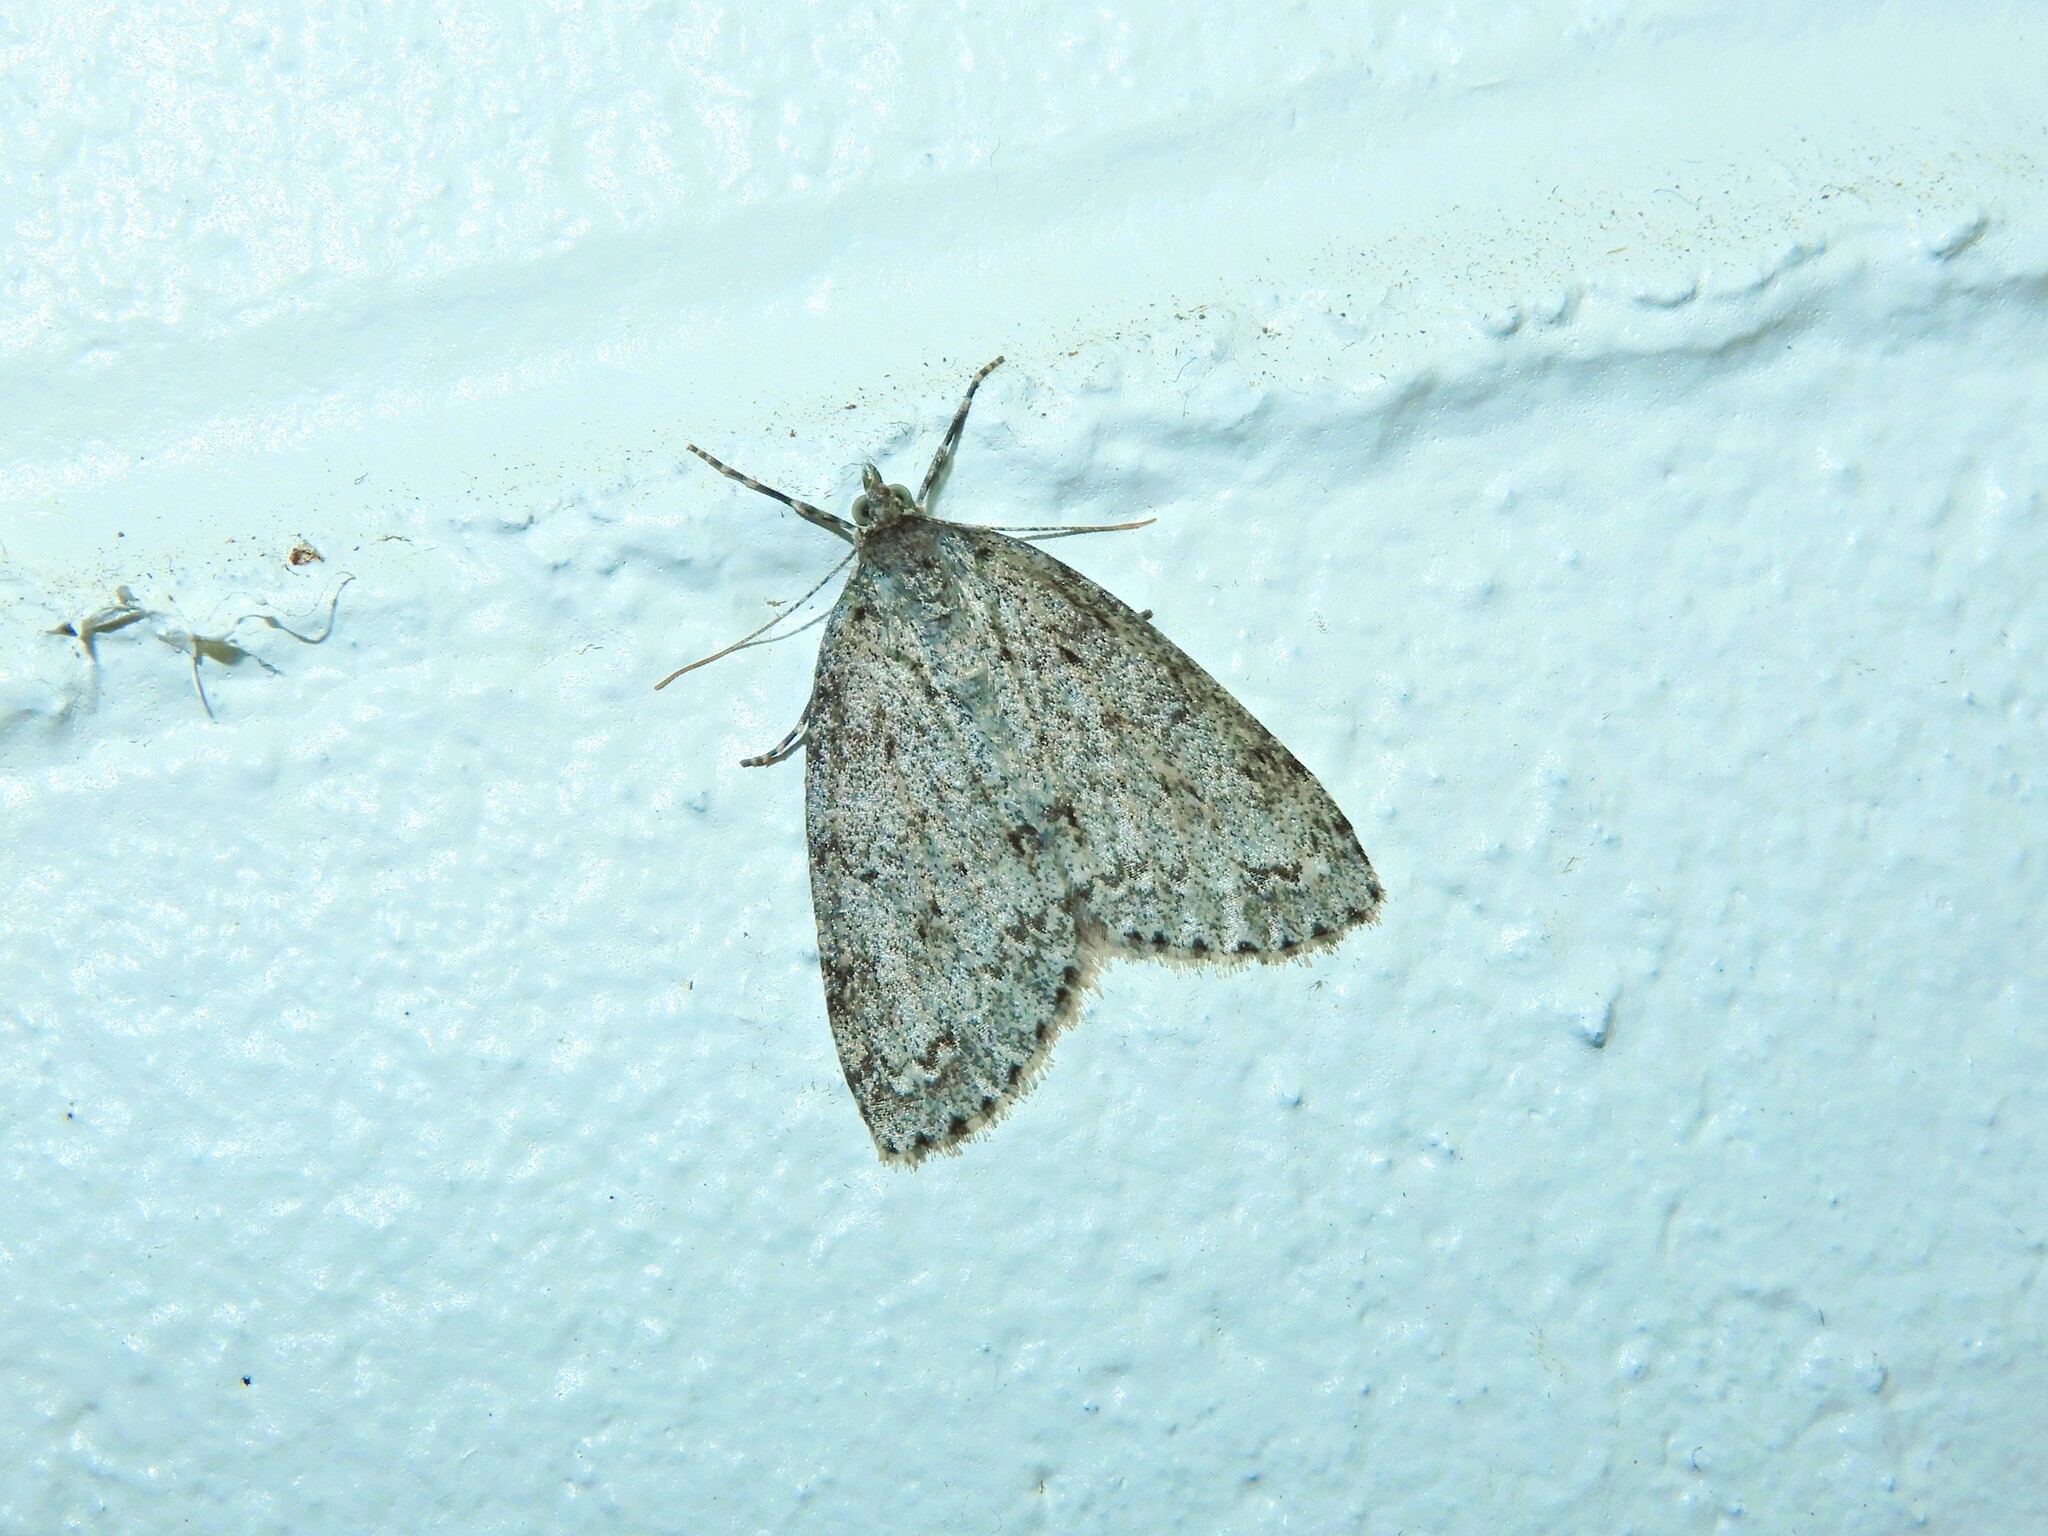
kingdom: Animalia
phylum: Arthropoda
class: Insecta
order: Lepidoptera
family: Geometridae
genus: Pseudocoremia
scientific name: Pseudocoremia fenerata
